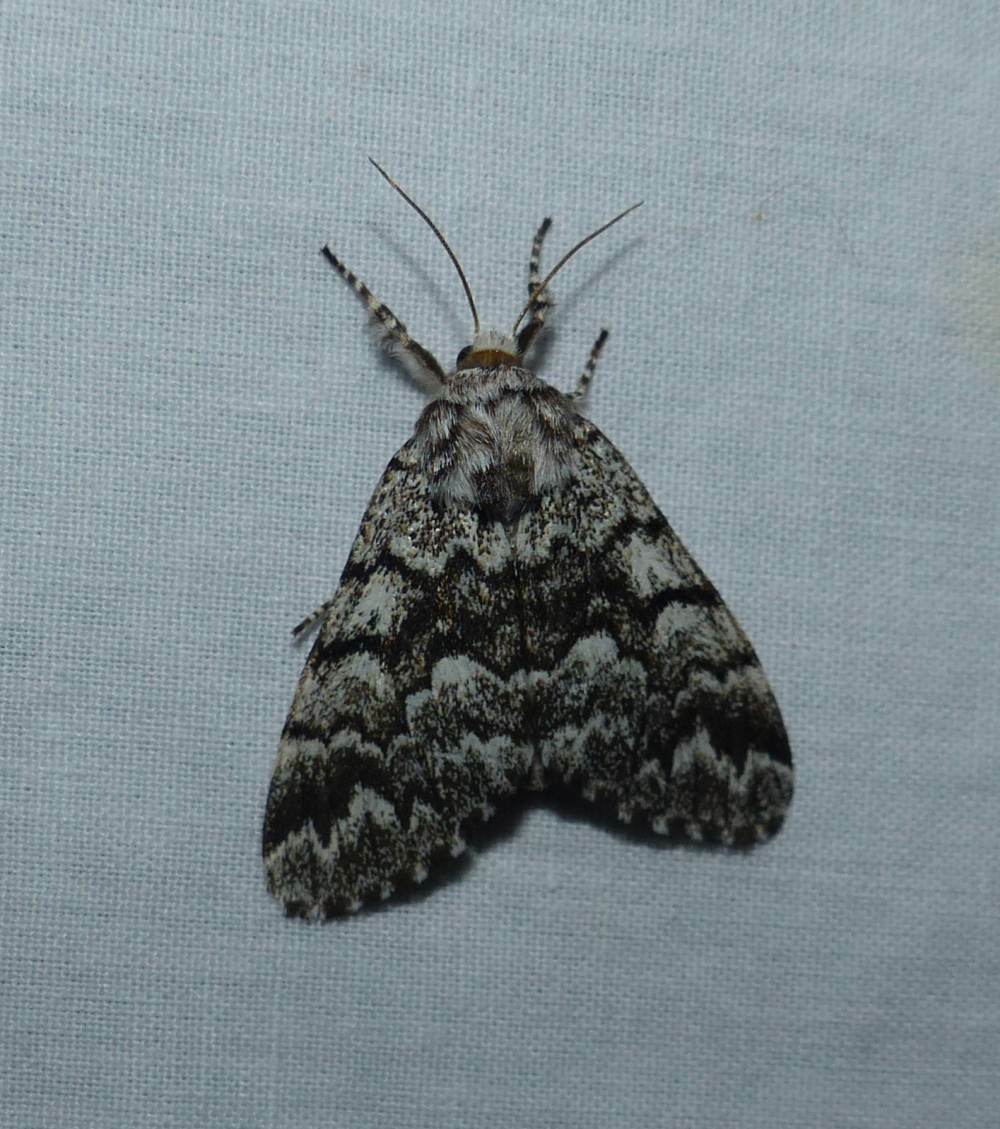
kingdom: Animalia
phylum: Arthropoda
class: Insecta
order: Lepidoptera
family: Noctuidae
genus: Panthea
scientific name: Panthea acronyctoides
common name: Black zigzag moth
